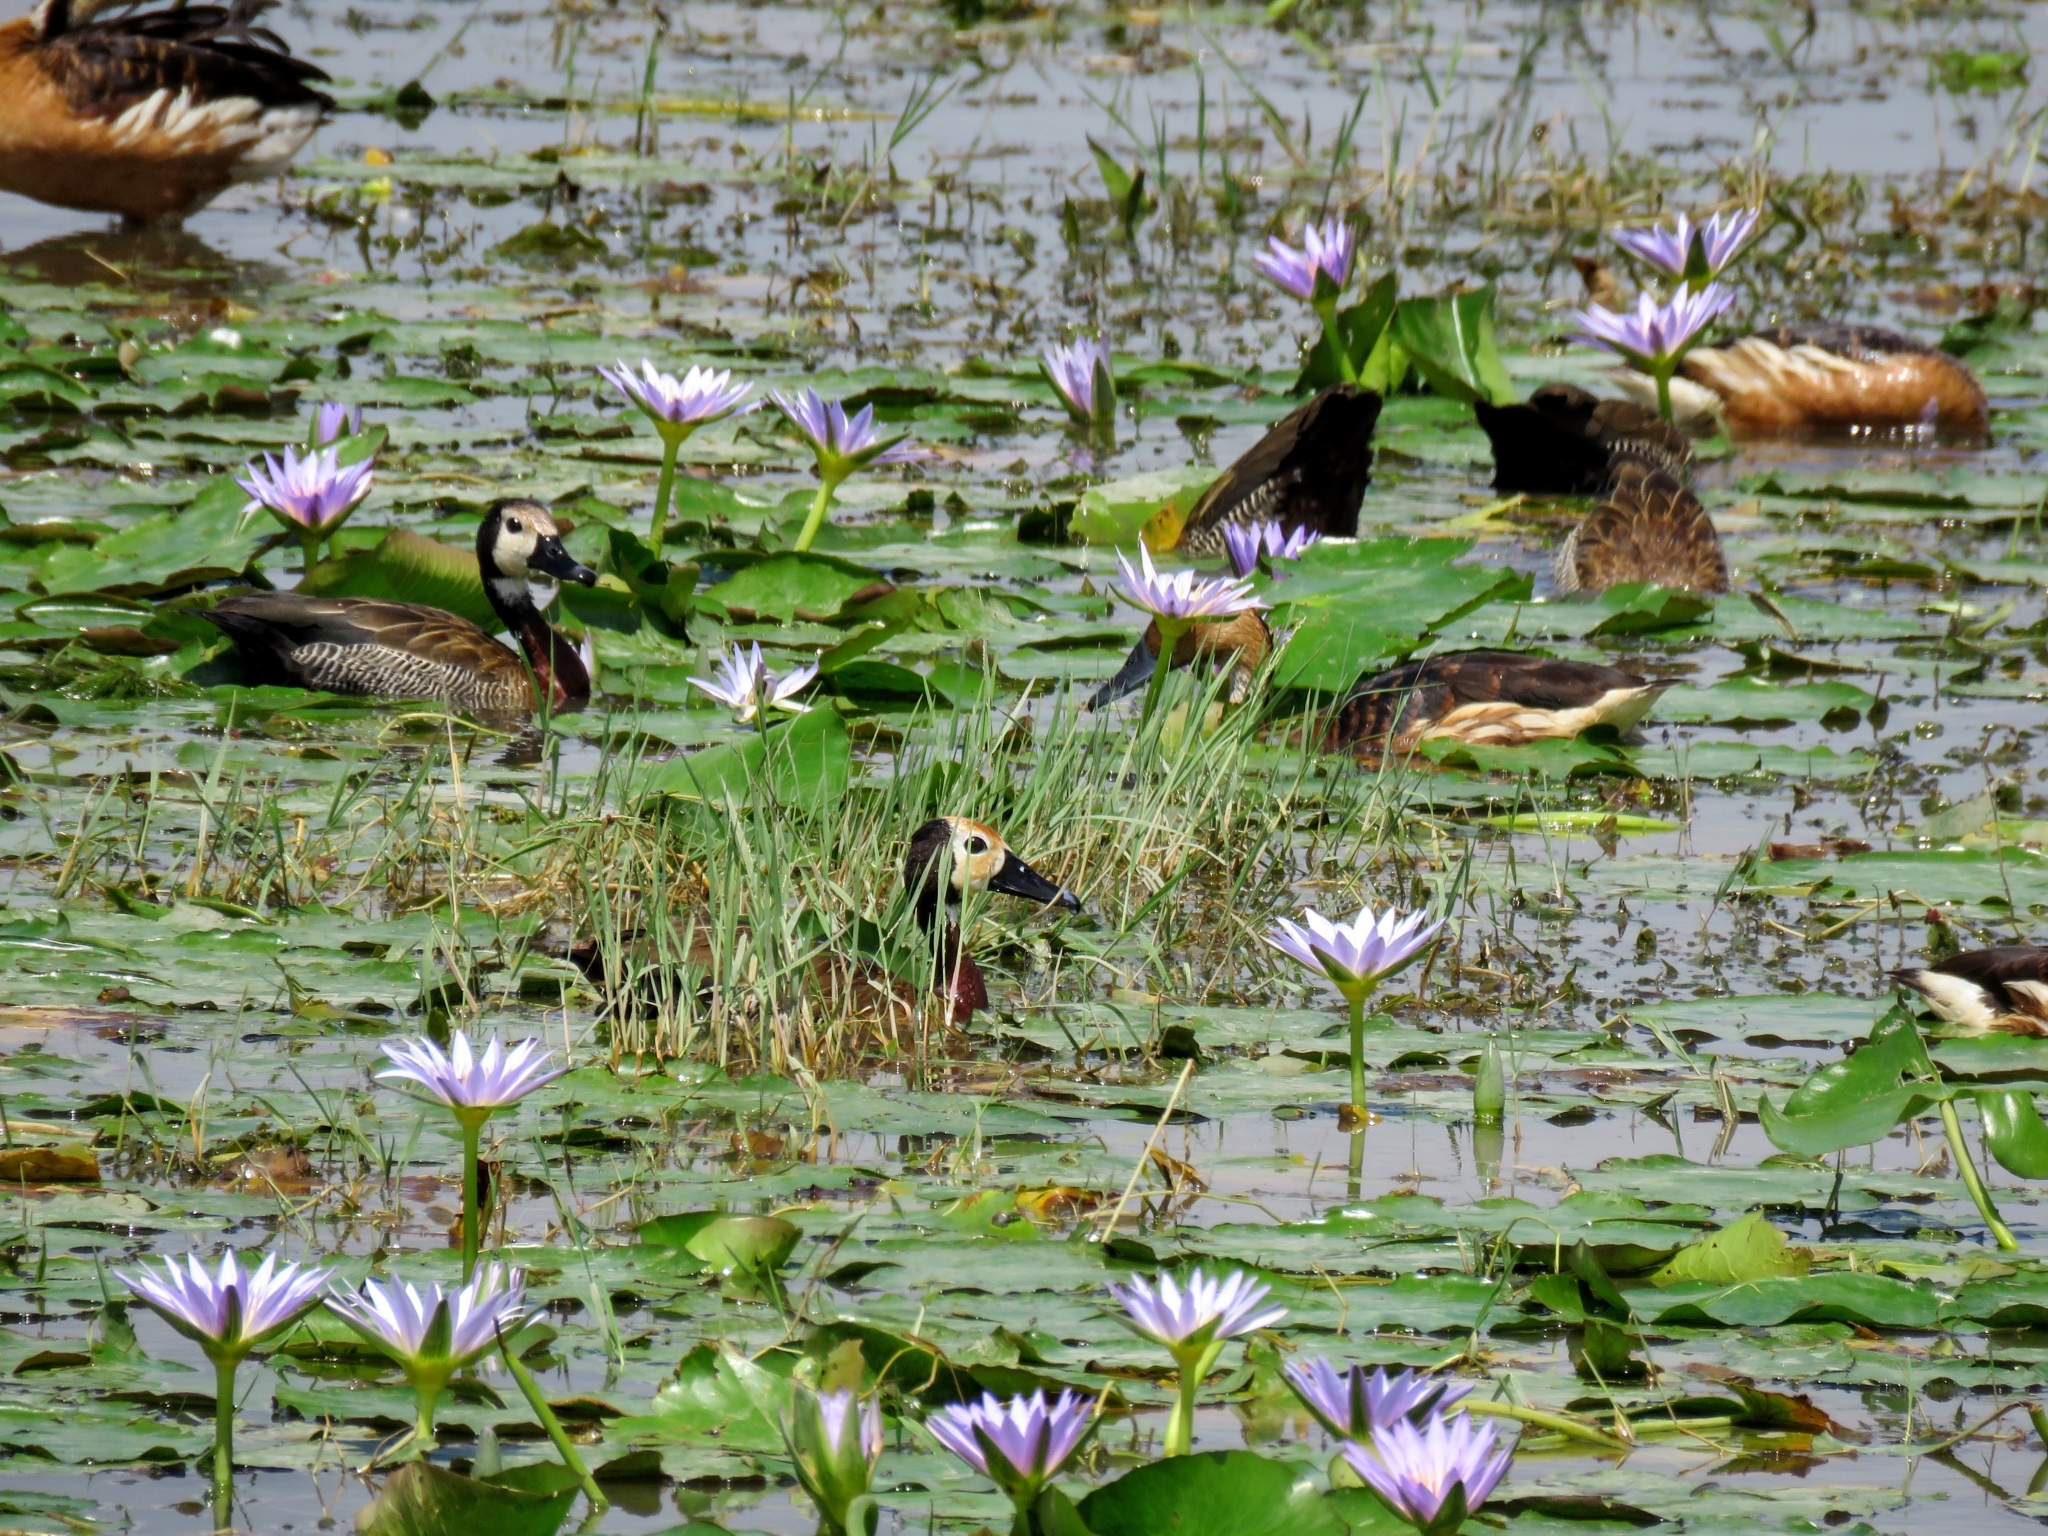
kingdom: Animalia
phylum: Chordata
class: Aves
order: Anseriformes
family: Anatidae
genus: Dendrocygna
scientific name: Dendrocygna viduata
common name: White-faced whistling duck
